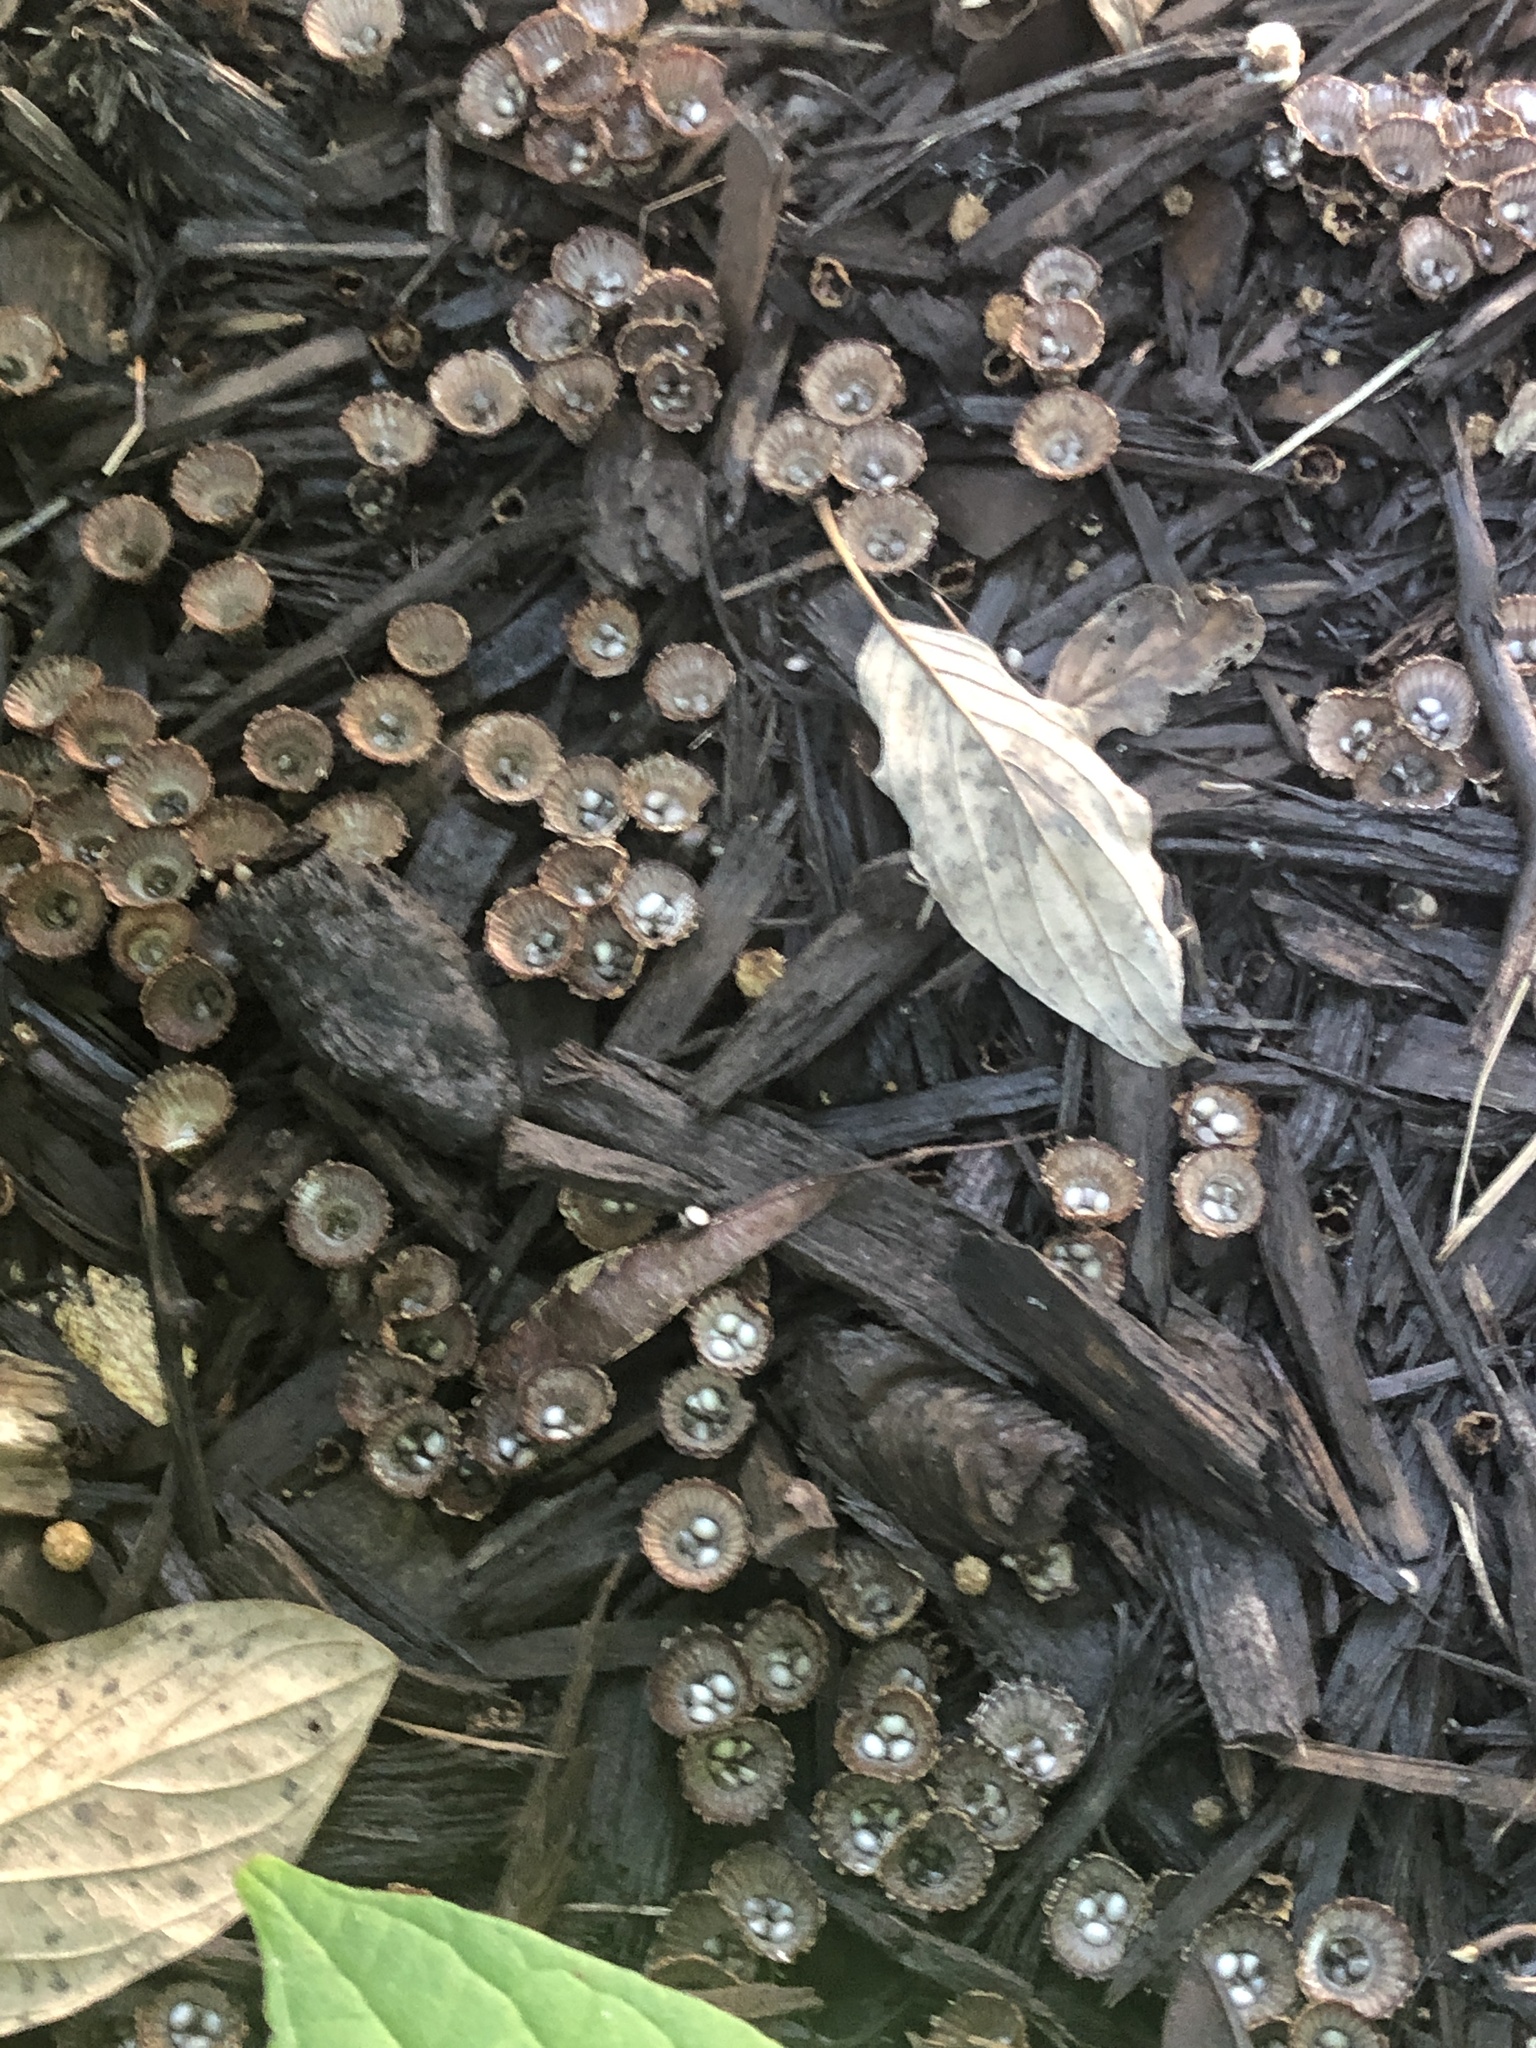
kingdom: Fungi
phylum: Basidiomycota
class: Agaricomycetes
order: Agaricales
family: Agaricaceae
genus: Cyathus
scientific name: Cyathus striatus
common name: Fluted bird's nest
